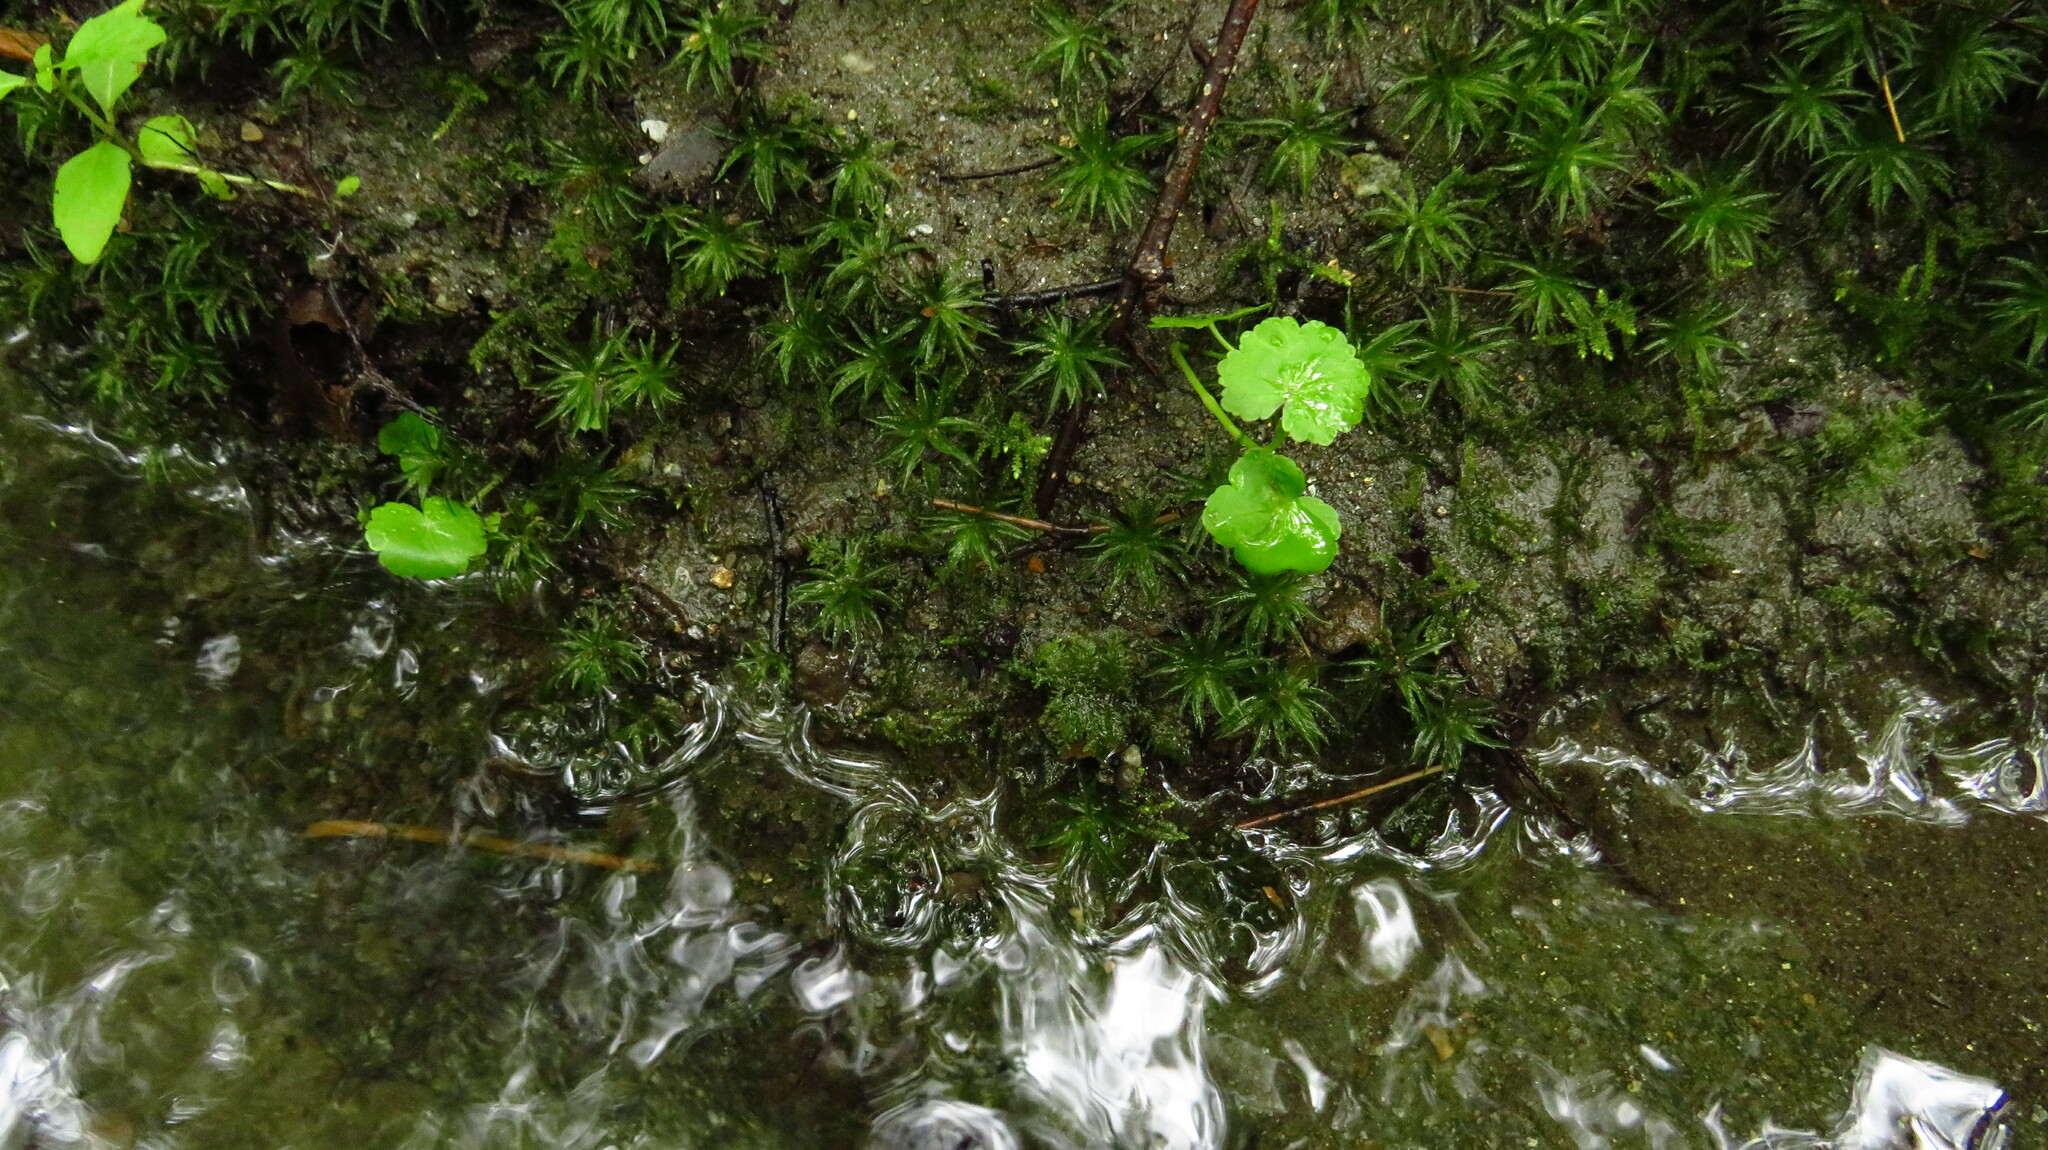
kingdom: Plantae
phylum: Tracheophyta
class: Magnoliopsida
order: Apiales
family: Araliaceae
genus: Hydrocotyle
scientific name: Hydrocotyle americana
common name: American water-pennywort
